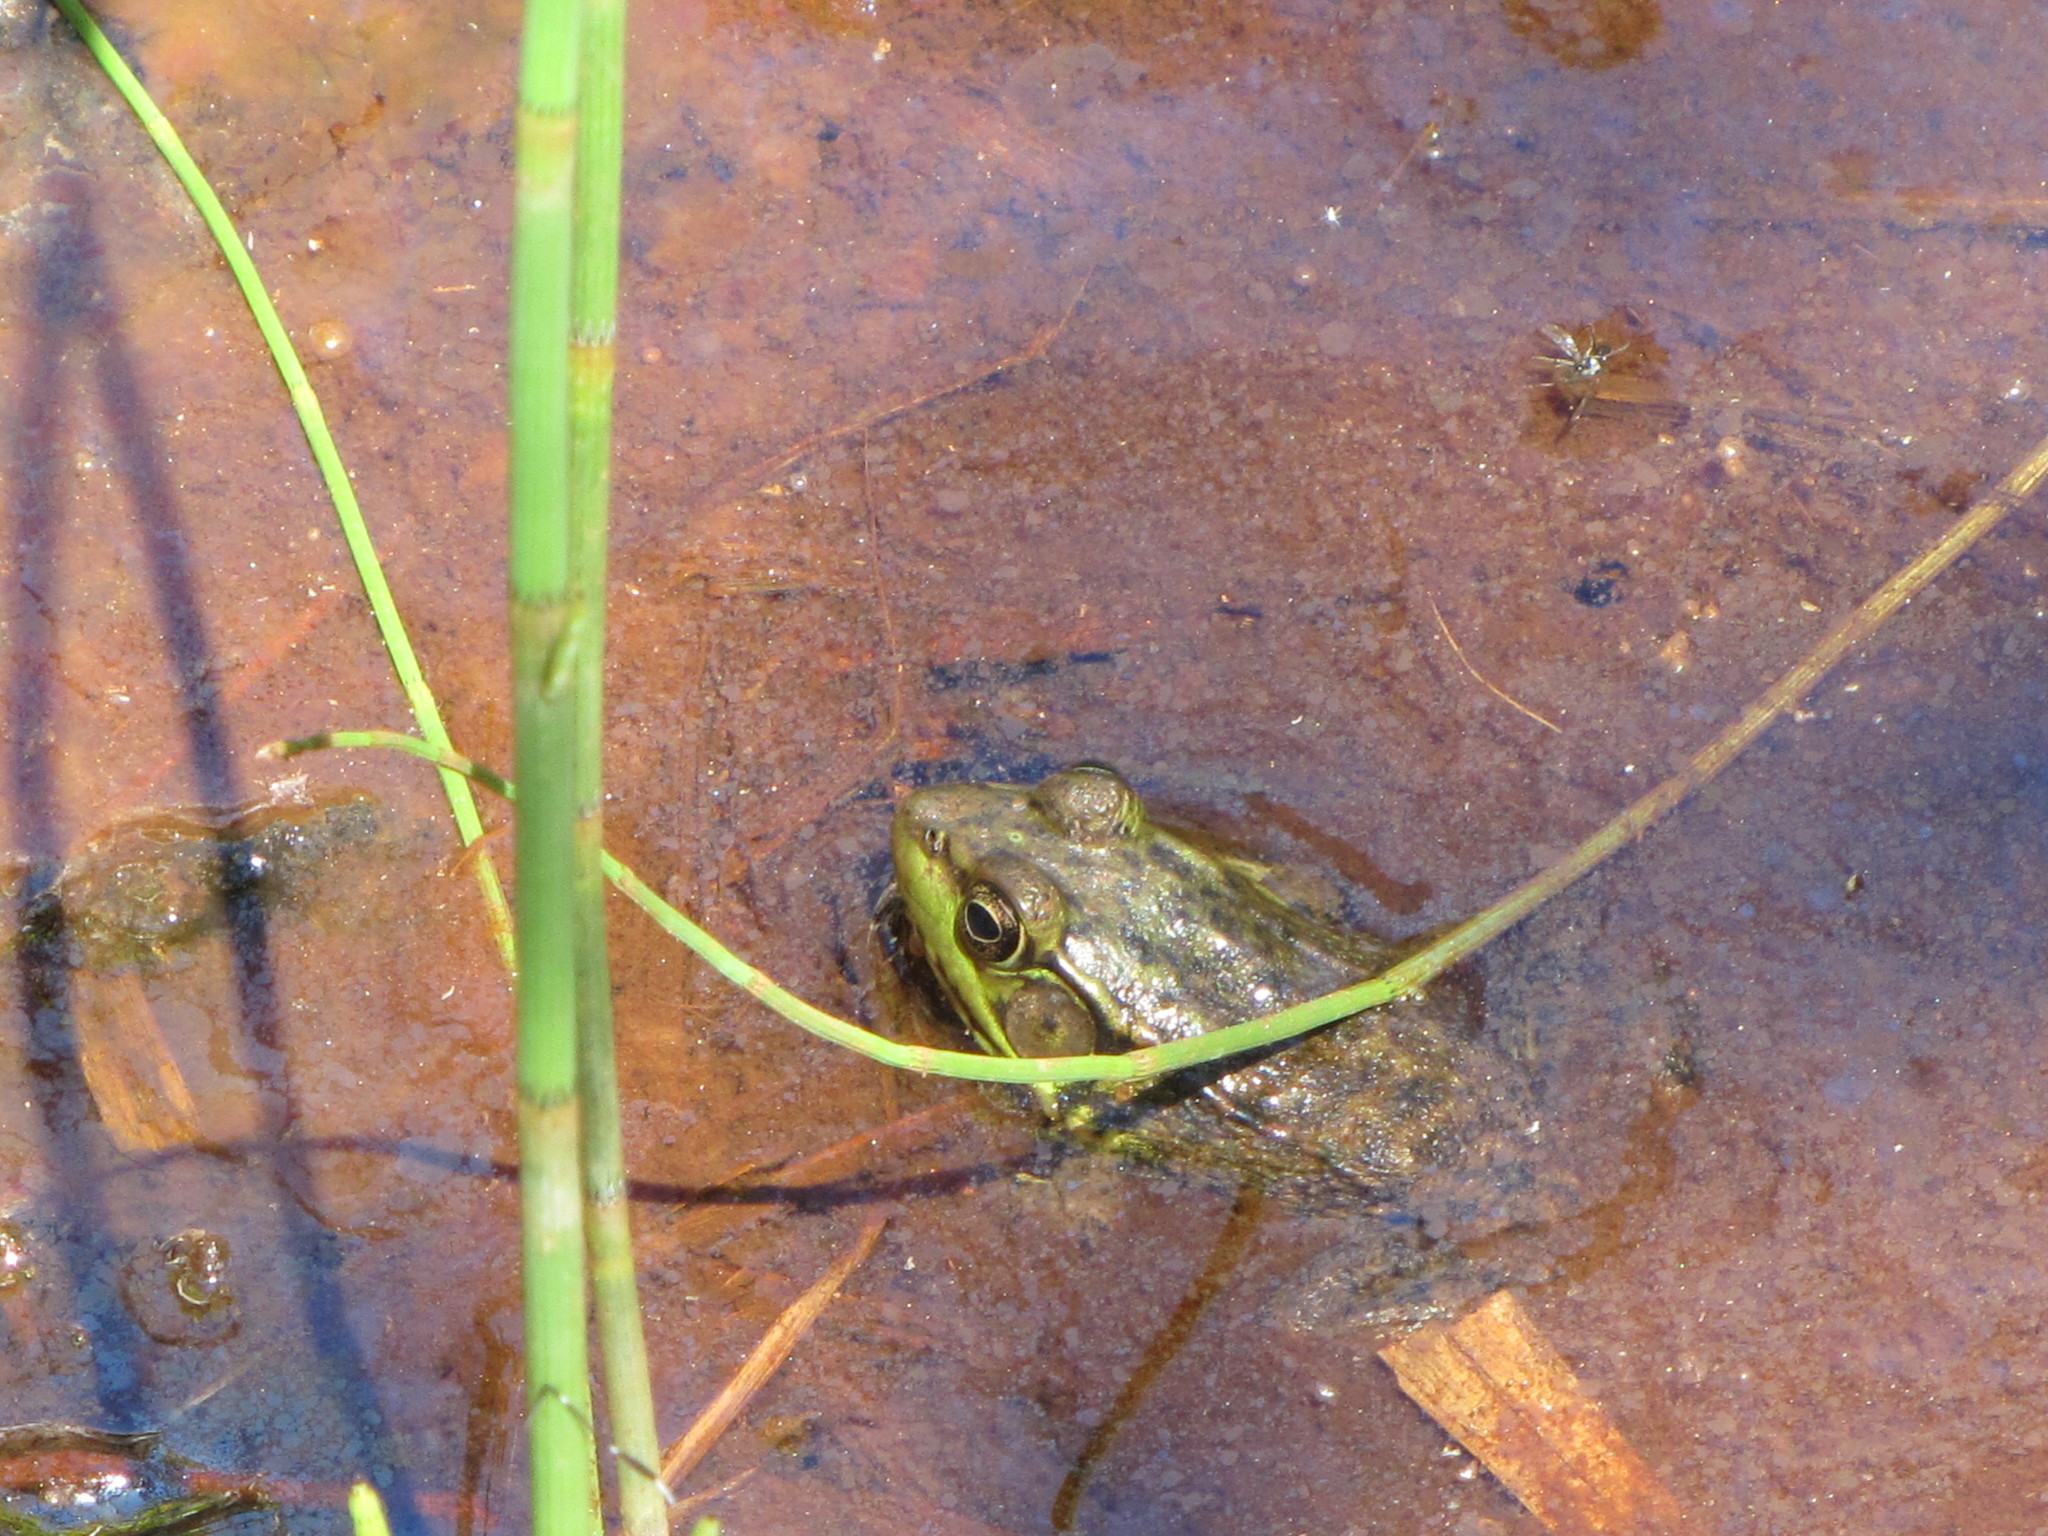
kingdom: Animalia
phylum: Chordata
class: Amphibia
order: Anura
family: Ranidae
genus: Lithobates
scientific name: Lithobates clamitans
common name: Green frog
